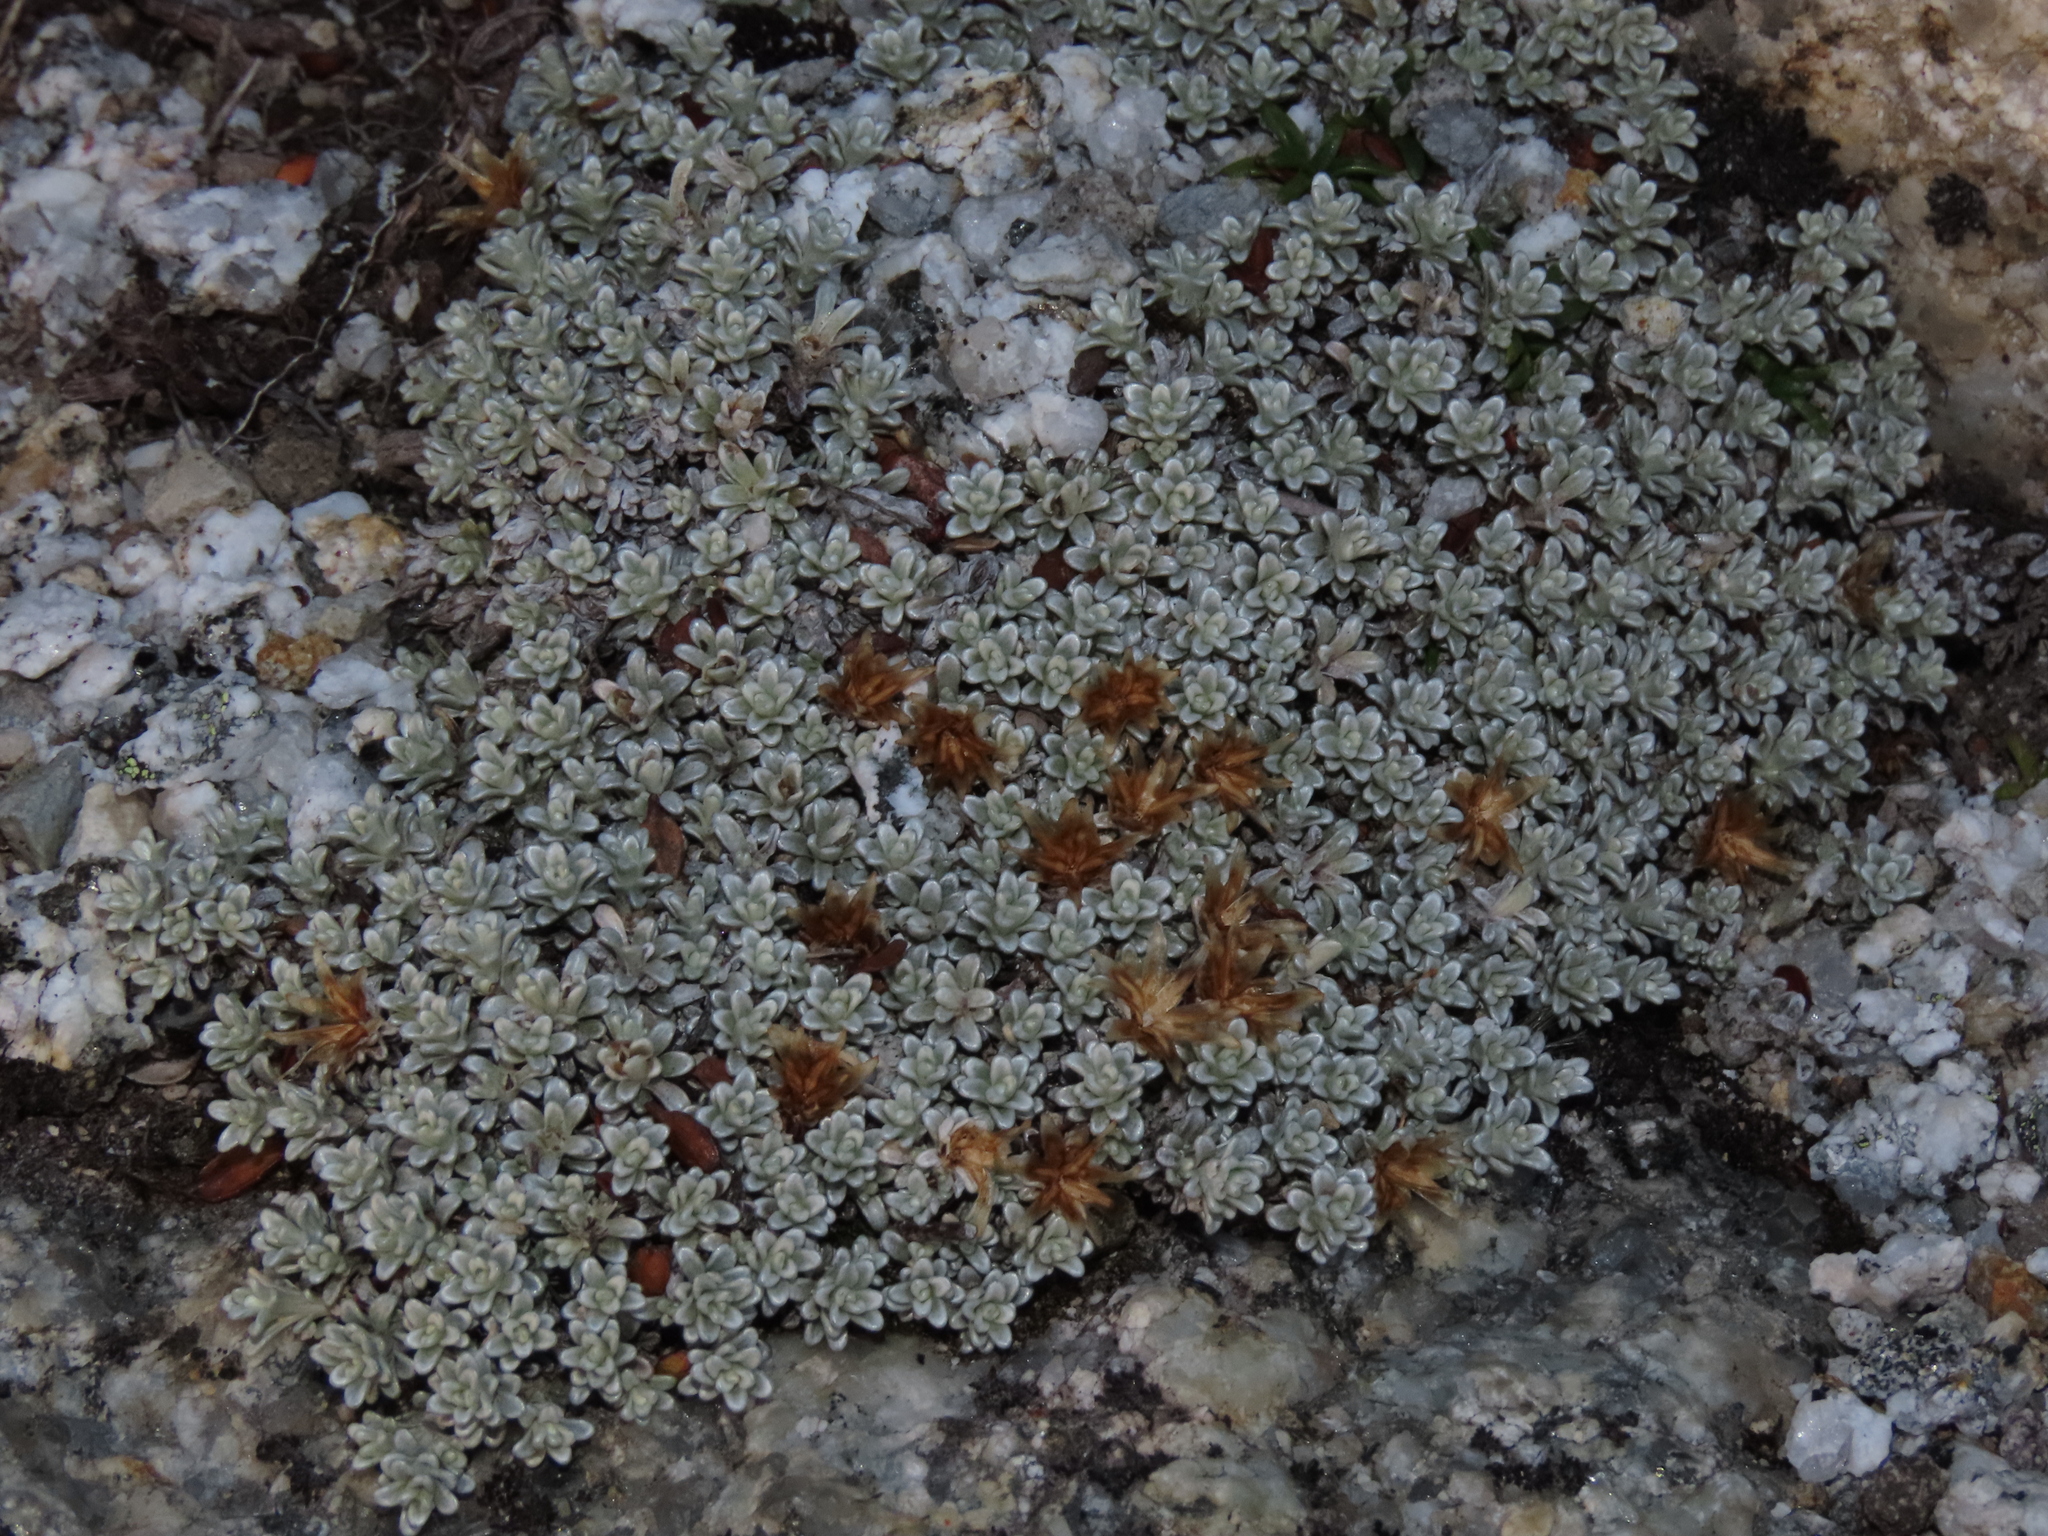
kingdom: Plantae
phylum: Tracheophyta
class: Magnoliopsida
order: Asterales
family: Asteraceae
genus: Belloa
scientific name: Belloa chilensis
